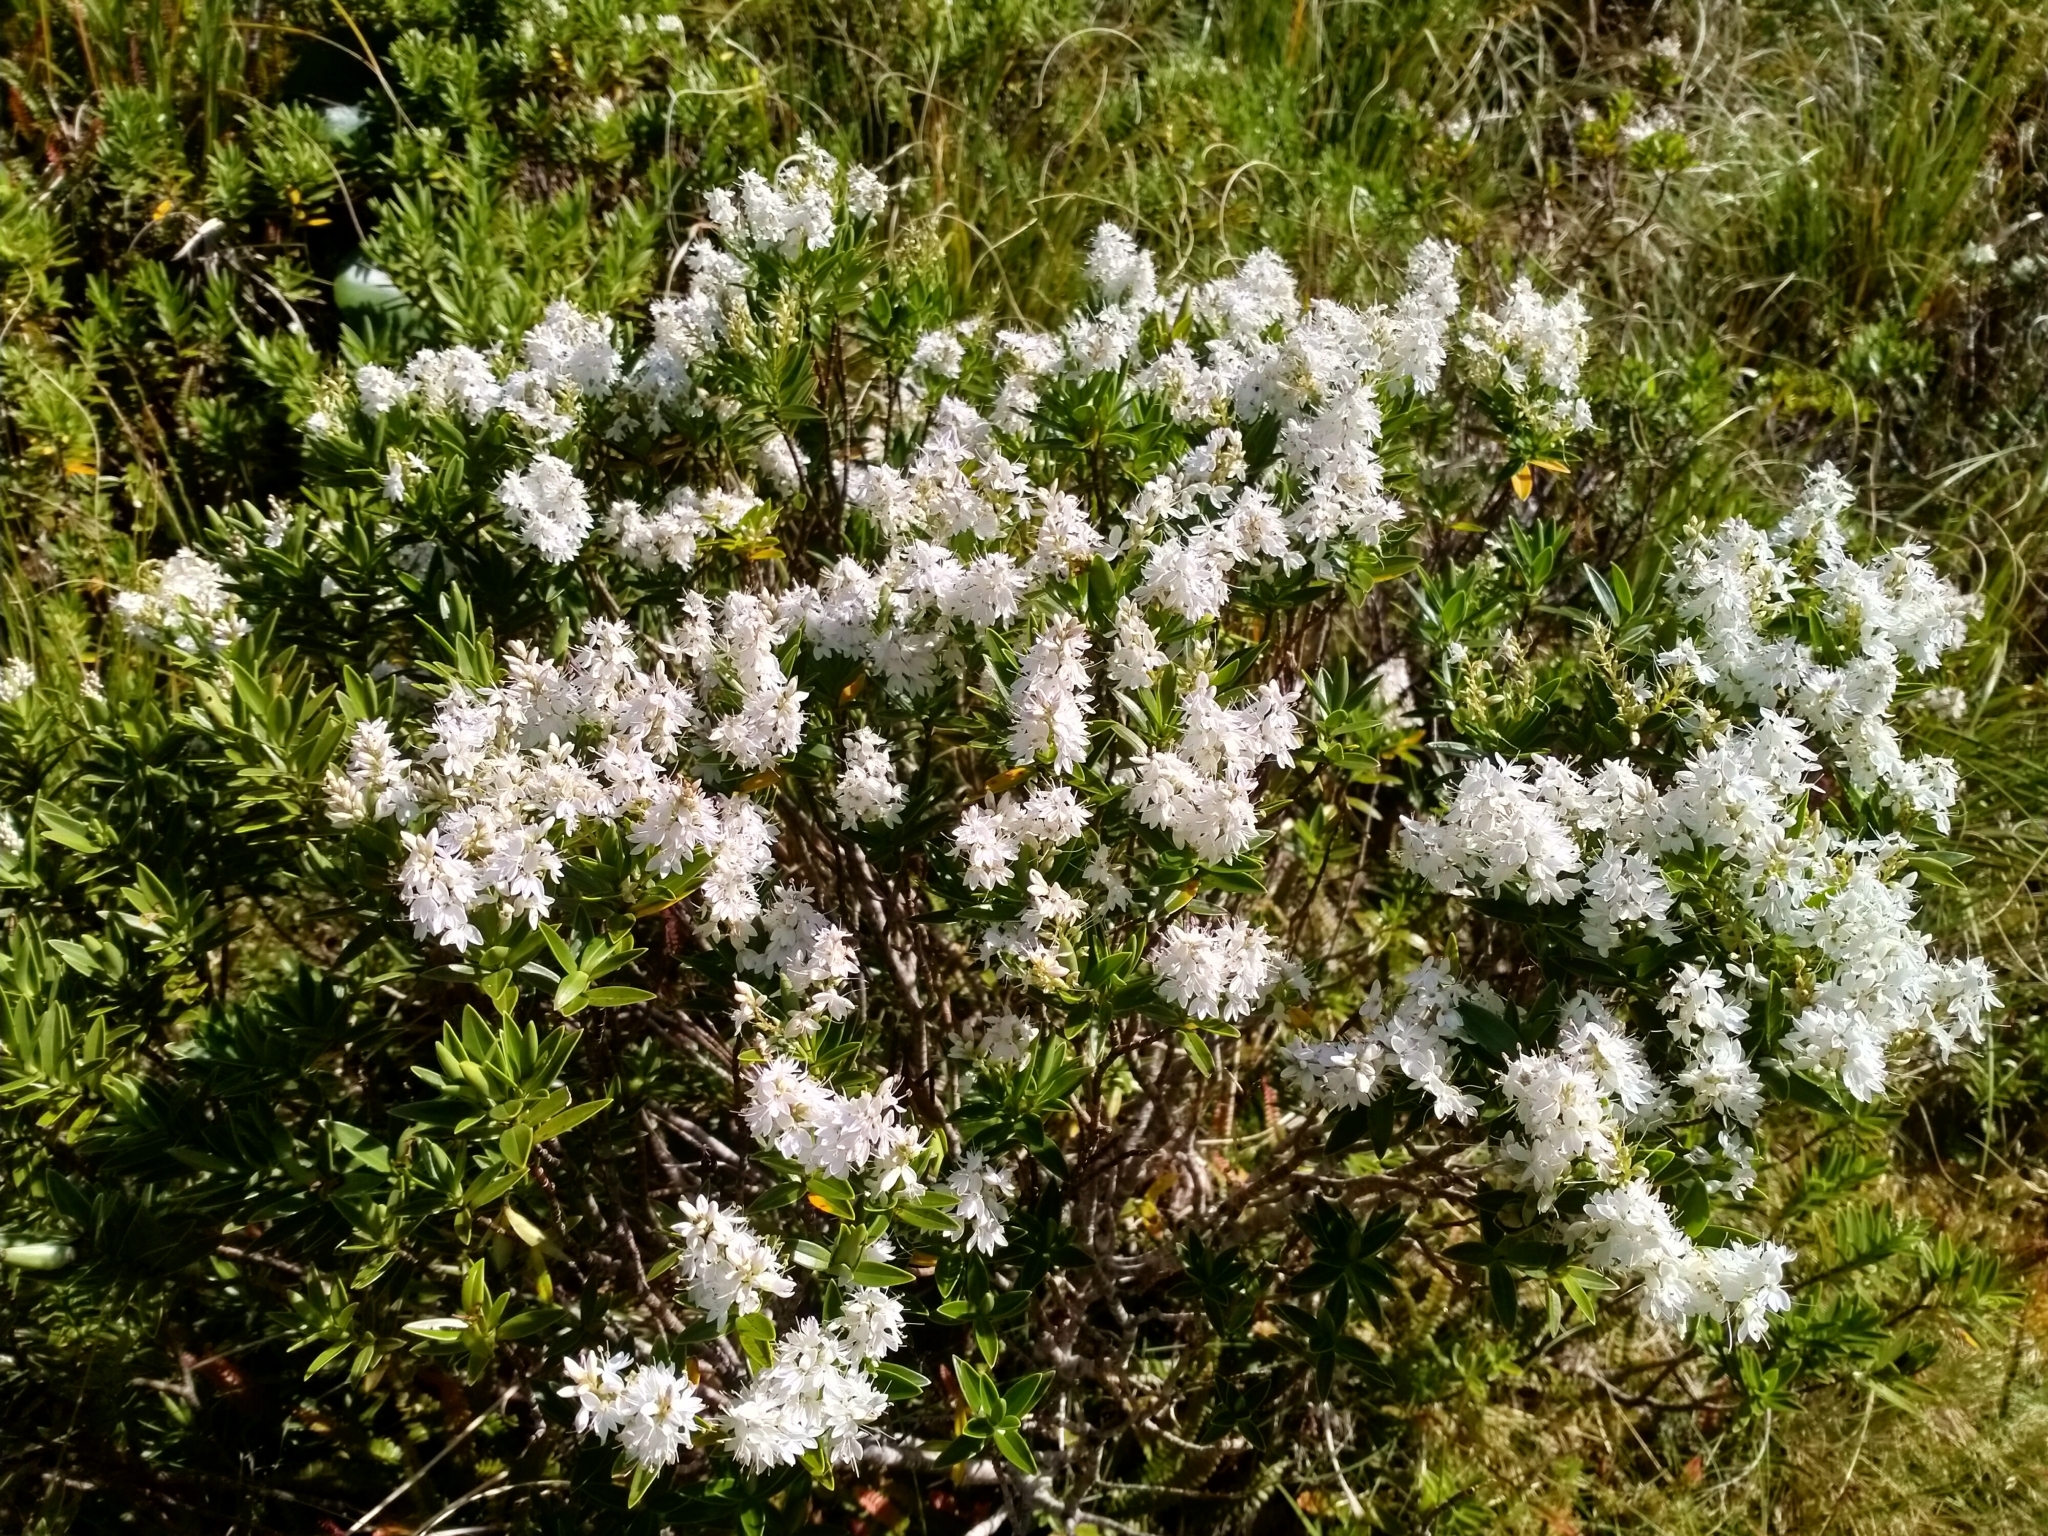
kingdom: Plantae
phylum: Tracheophyta
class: Magnoliopsida
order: Lamiales
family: Plantaginaceae
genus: Veronica
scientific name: Veronica subalpina
